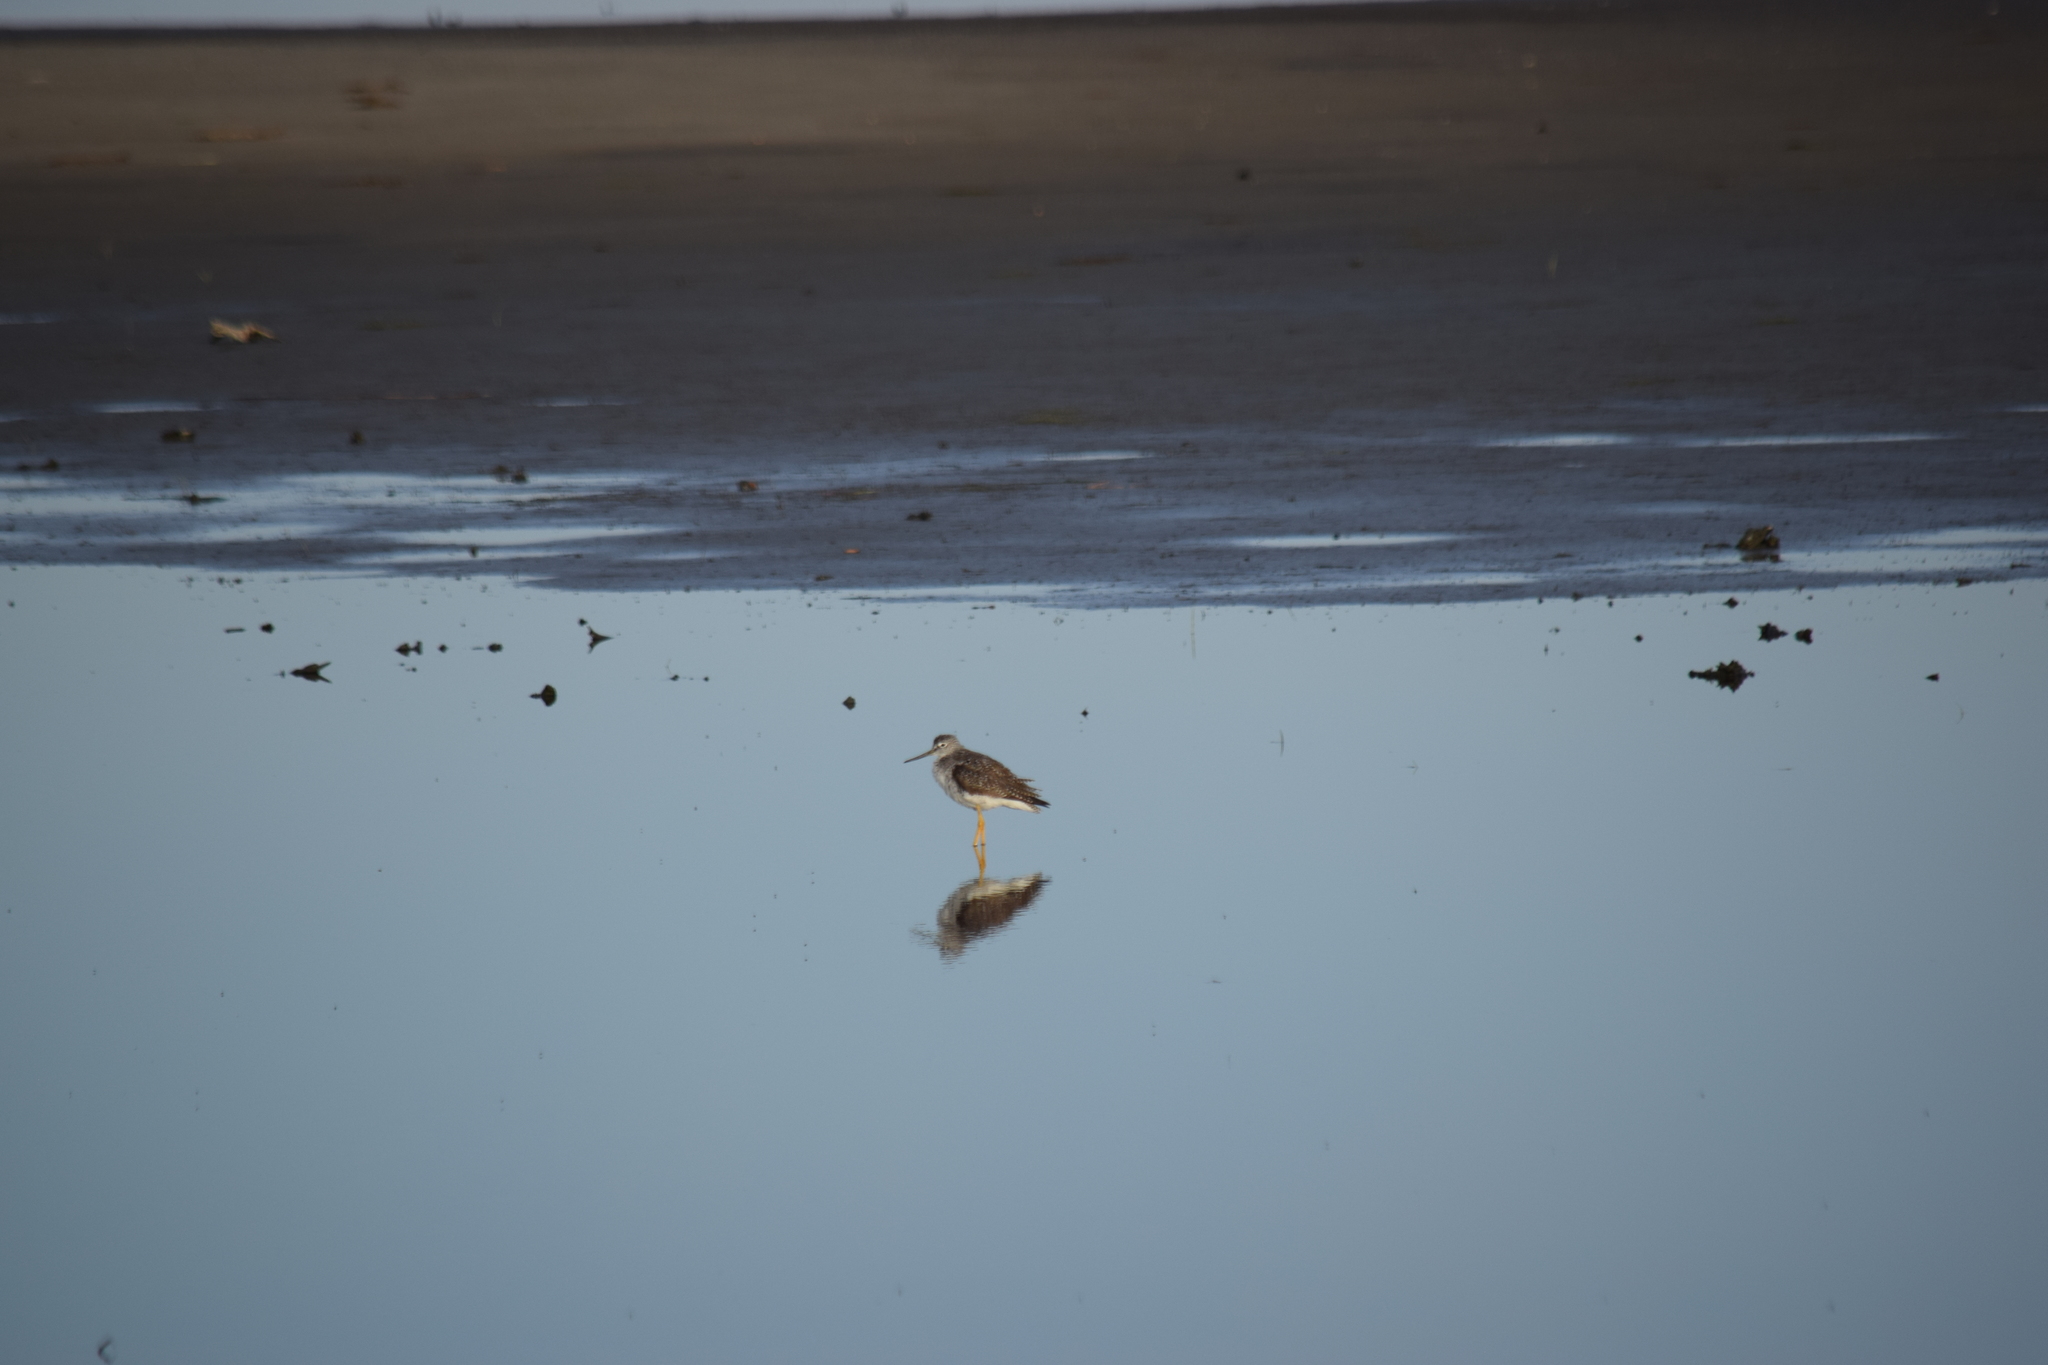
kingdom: Animalia
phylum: Chordata
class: Aves
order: Charadriiformes
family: Scolopacidae
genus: Tringa
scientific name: Tringa melanoleuca
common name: Greater yellowlegs
